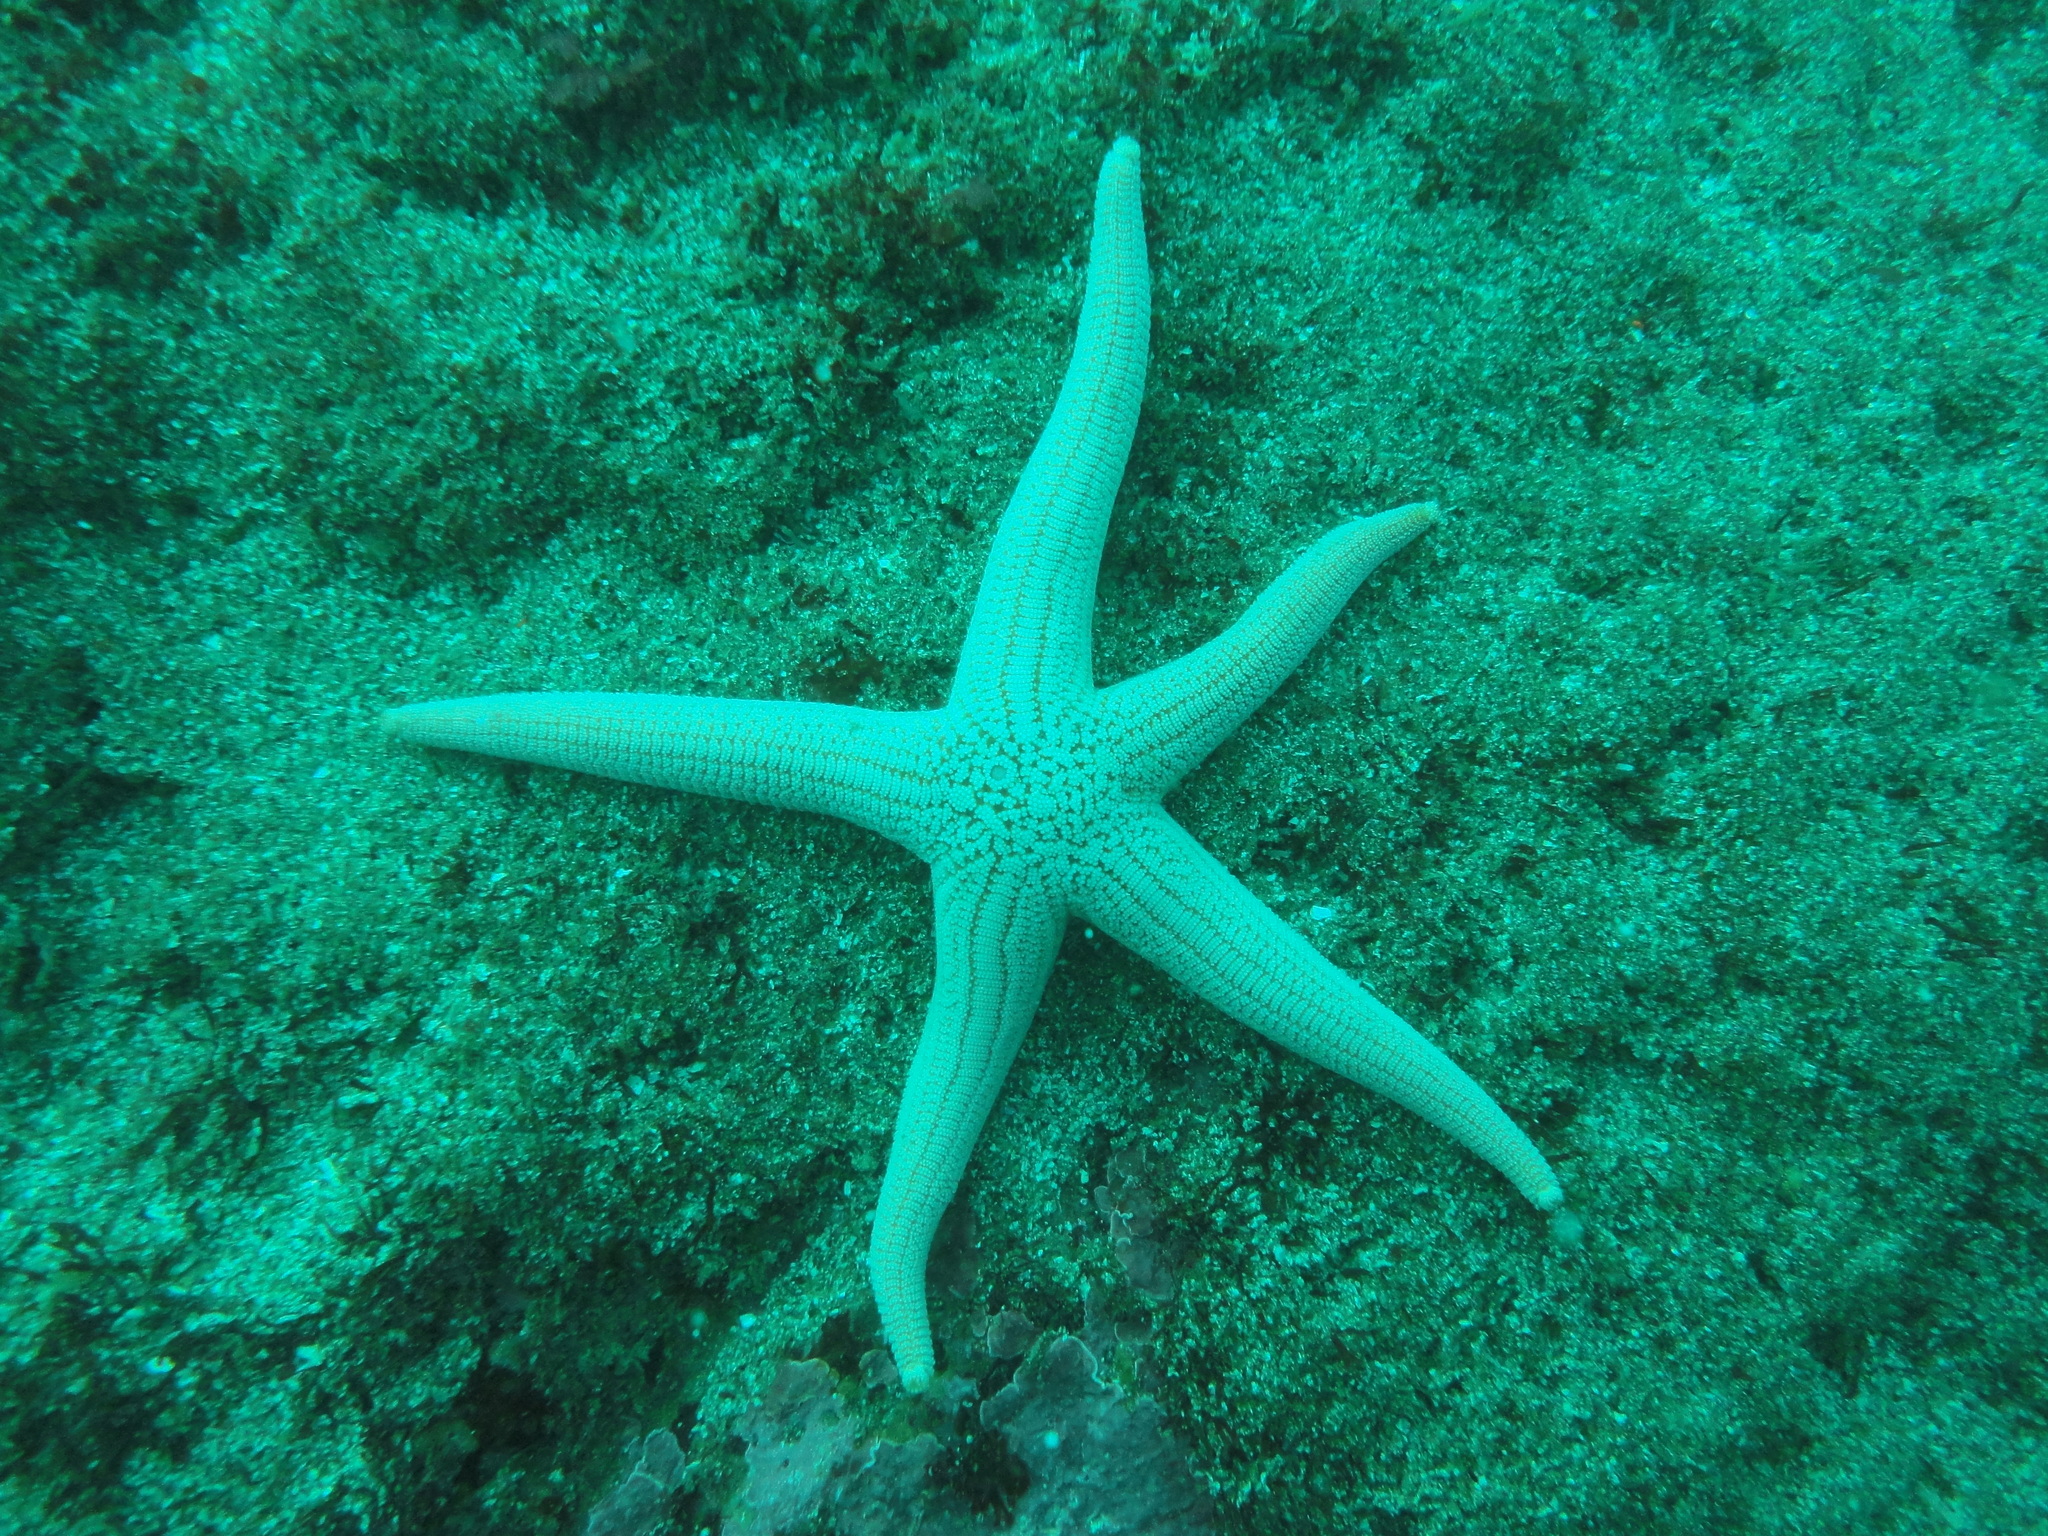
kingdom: Animalia
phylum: Echinodermata
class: Asteroidea
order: Forcipulatida
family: Stichasteridae
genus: Stichaster
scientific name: Stichaster striatus
